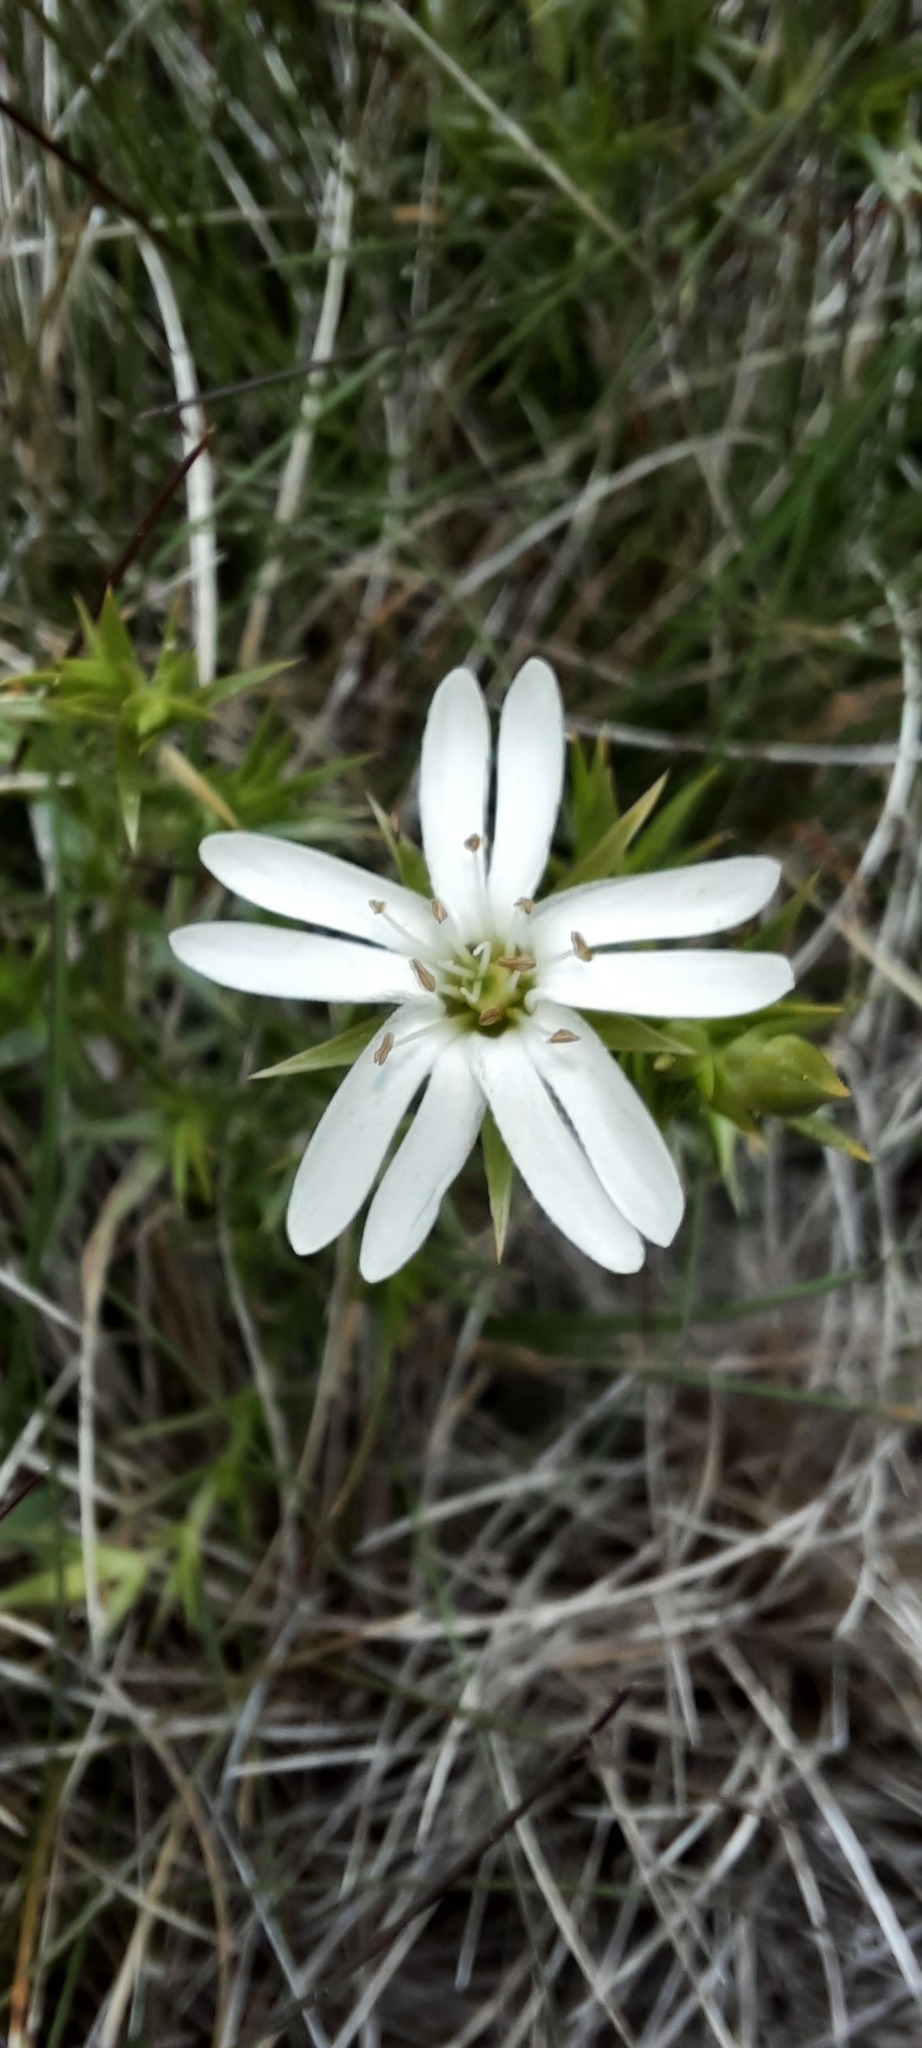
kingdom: Plantae
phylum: Tracheophyta
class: Magnoliopsida
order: Caryophyllales
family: Caryophyllaceae
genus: Stellaria
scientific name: Stellaria pungens
